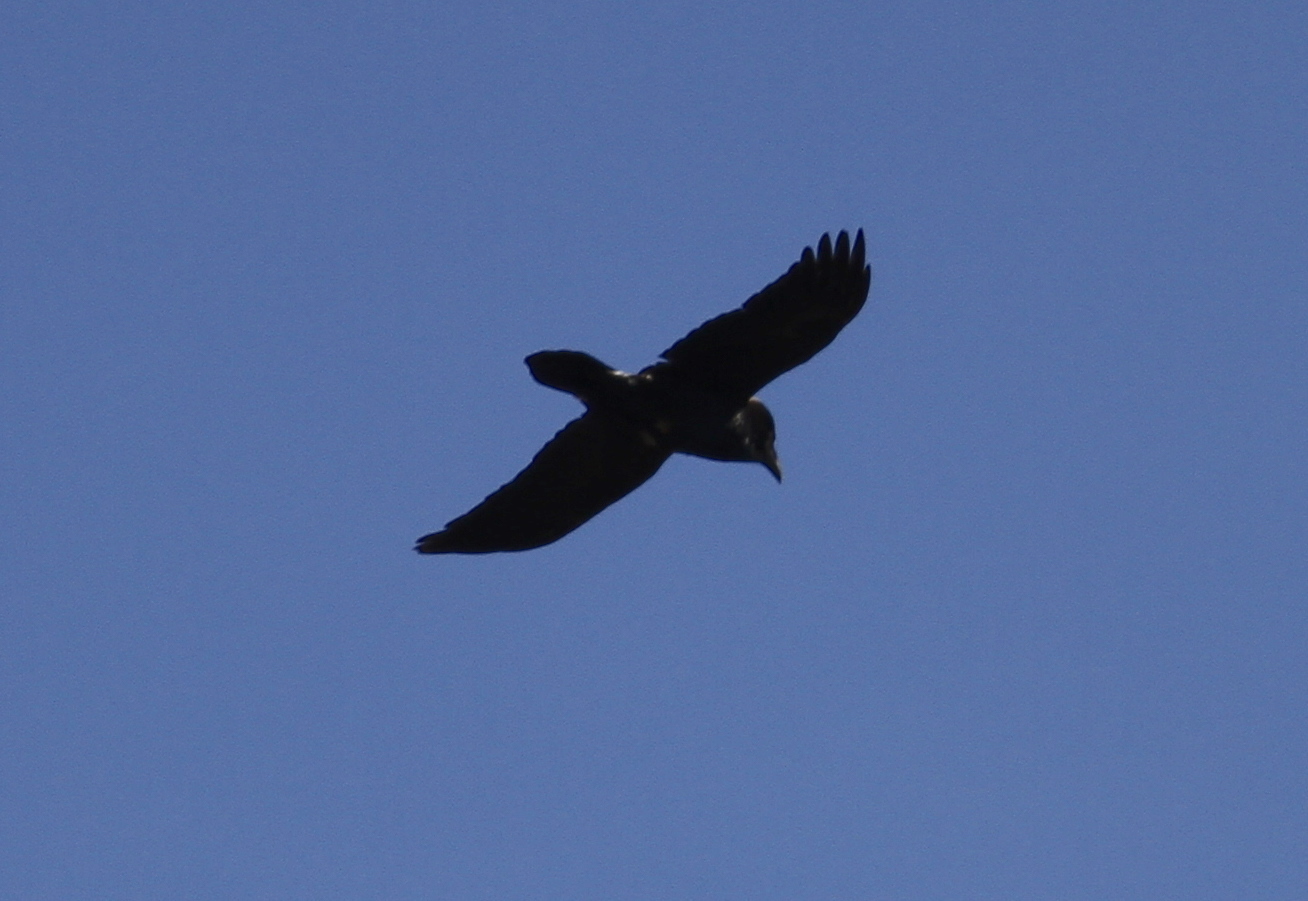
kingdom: Animalia
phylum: Chordata
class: Aves
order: Passeriformes
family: Corvidae
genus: Corvus
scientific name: Corvus corax
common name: Common raven
